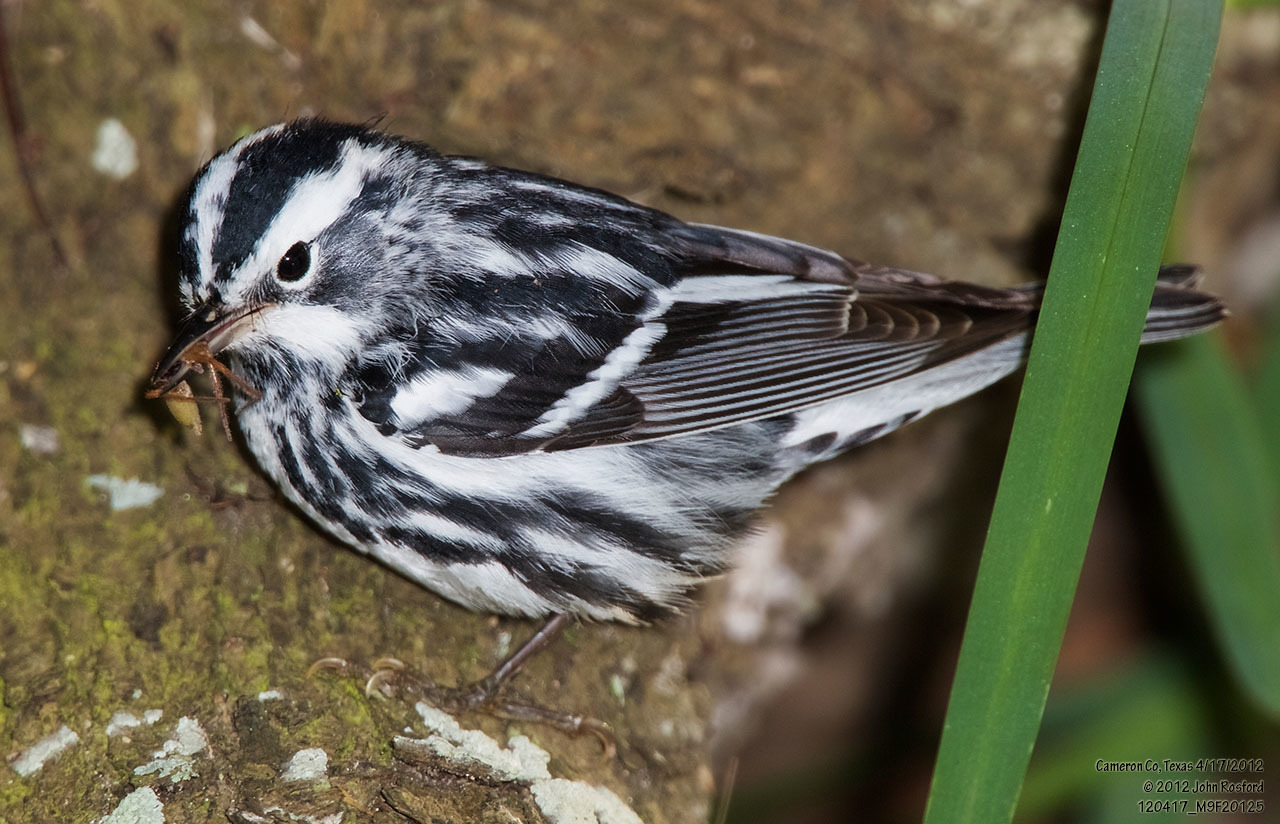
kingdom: Animalia
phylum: Chordata
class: Aves
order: Passeriformes
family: Parulidae
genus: Mniotilta
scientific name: Mniotilta varia
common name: Black-and-white warbler
